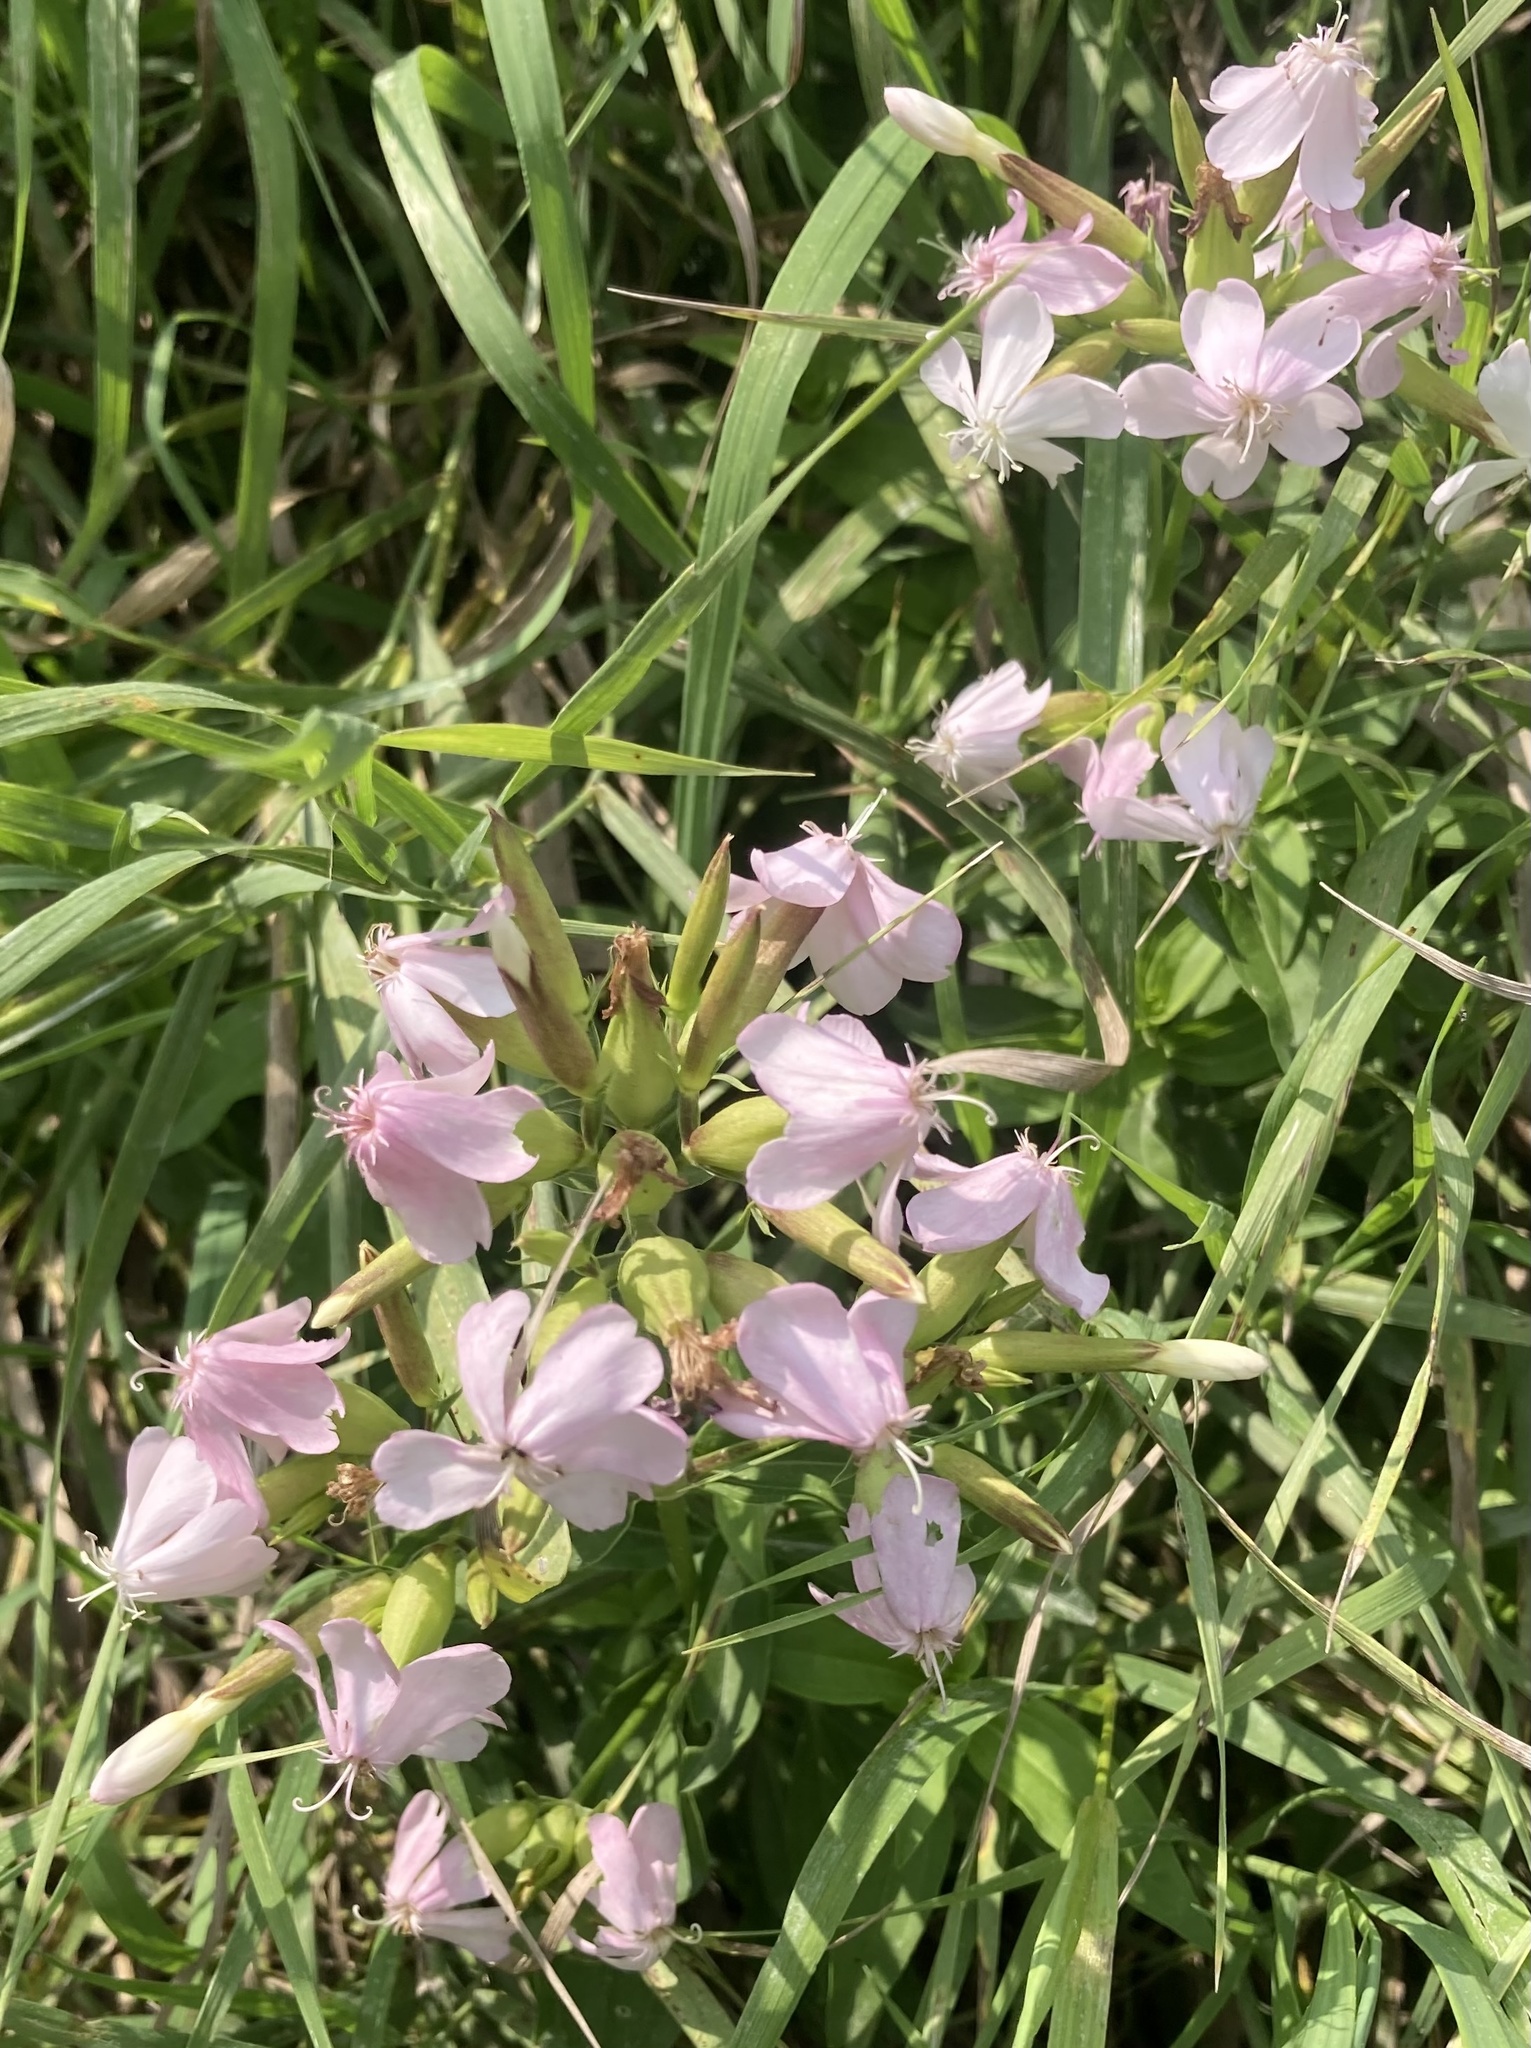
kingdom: Plantae
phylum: Tracheophyta
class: Magnoliopsida
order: Caryophyllales
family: Caryophyllaceae
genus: Saponaria
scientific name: Saponaria officinalis
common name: Soapwort
